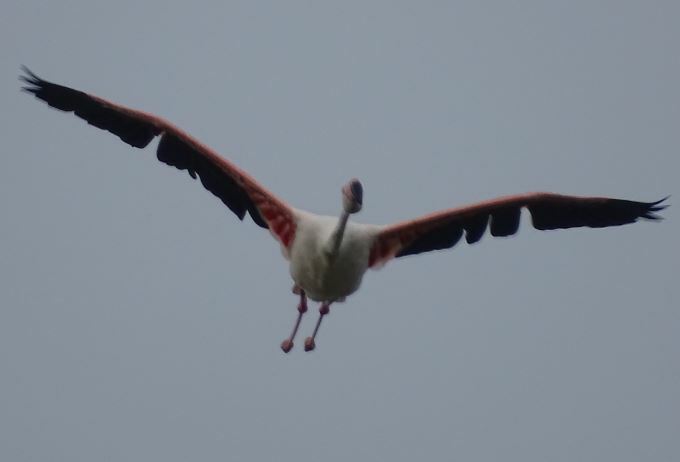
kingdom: Animalia
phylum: Chordata
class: Aves
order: Phoenicopteriformes
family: Phoenicopteridae
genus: Phoenicopterus
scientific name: Phoenicopterus roseus
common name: Greater flamingo
